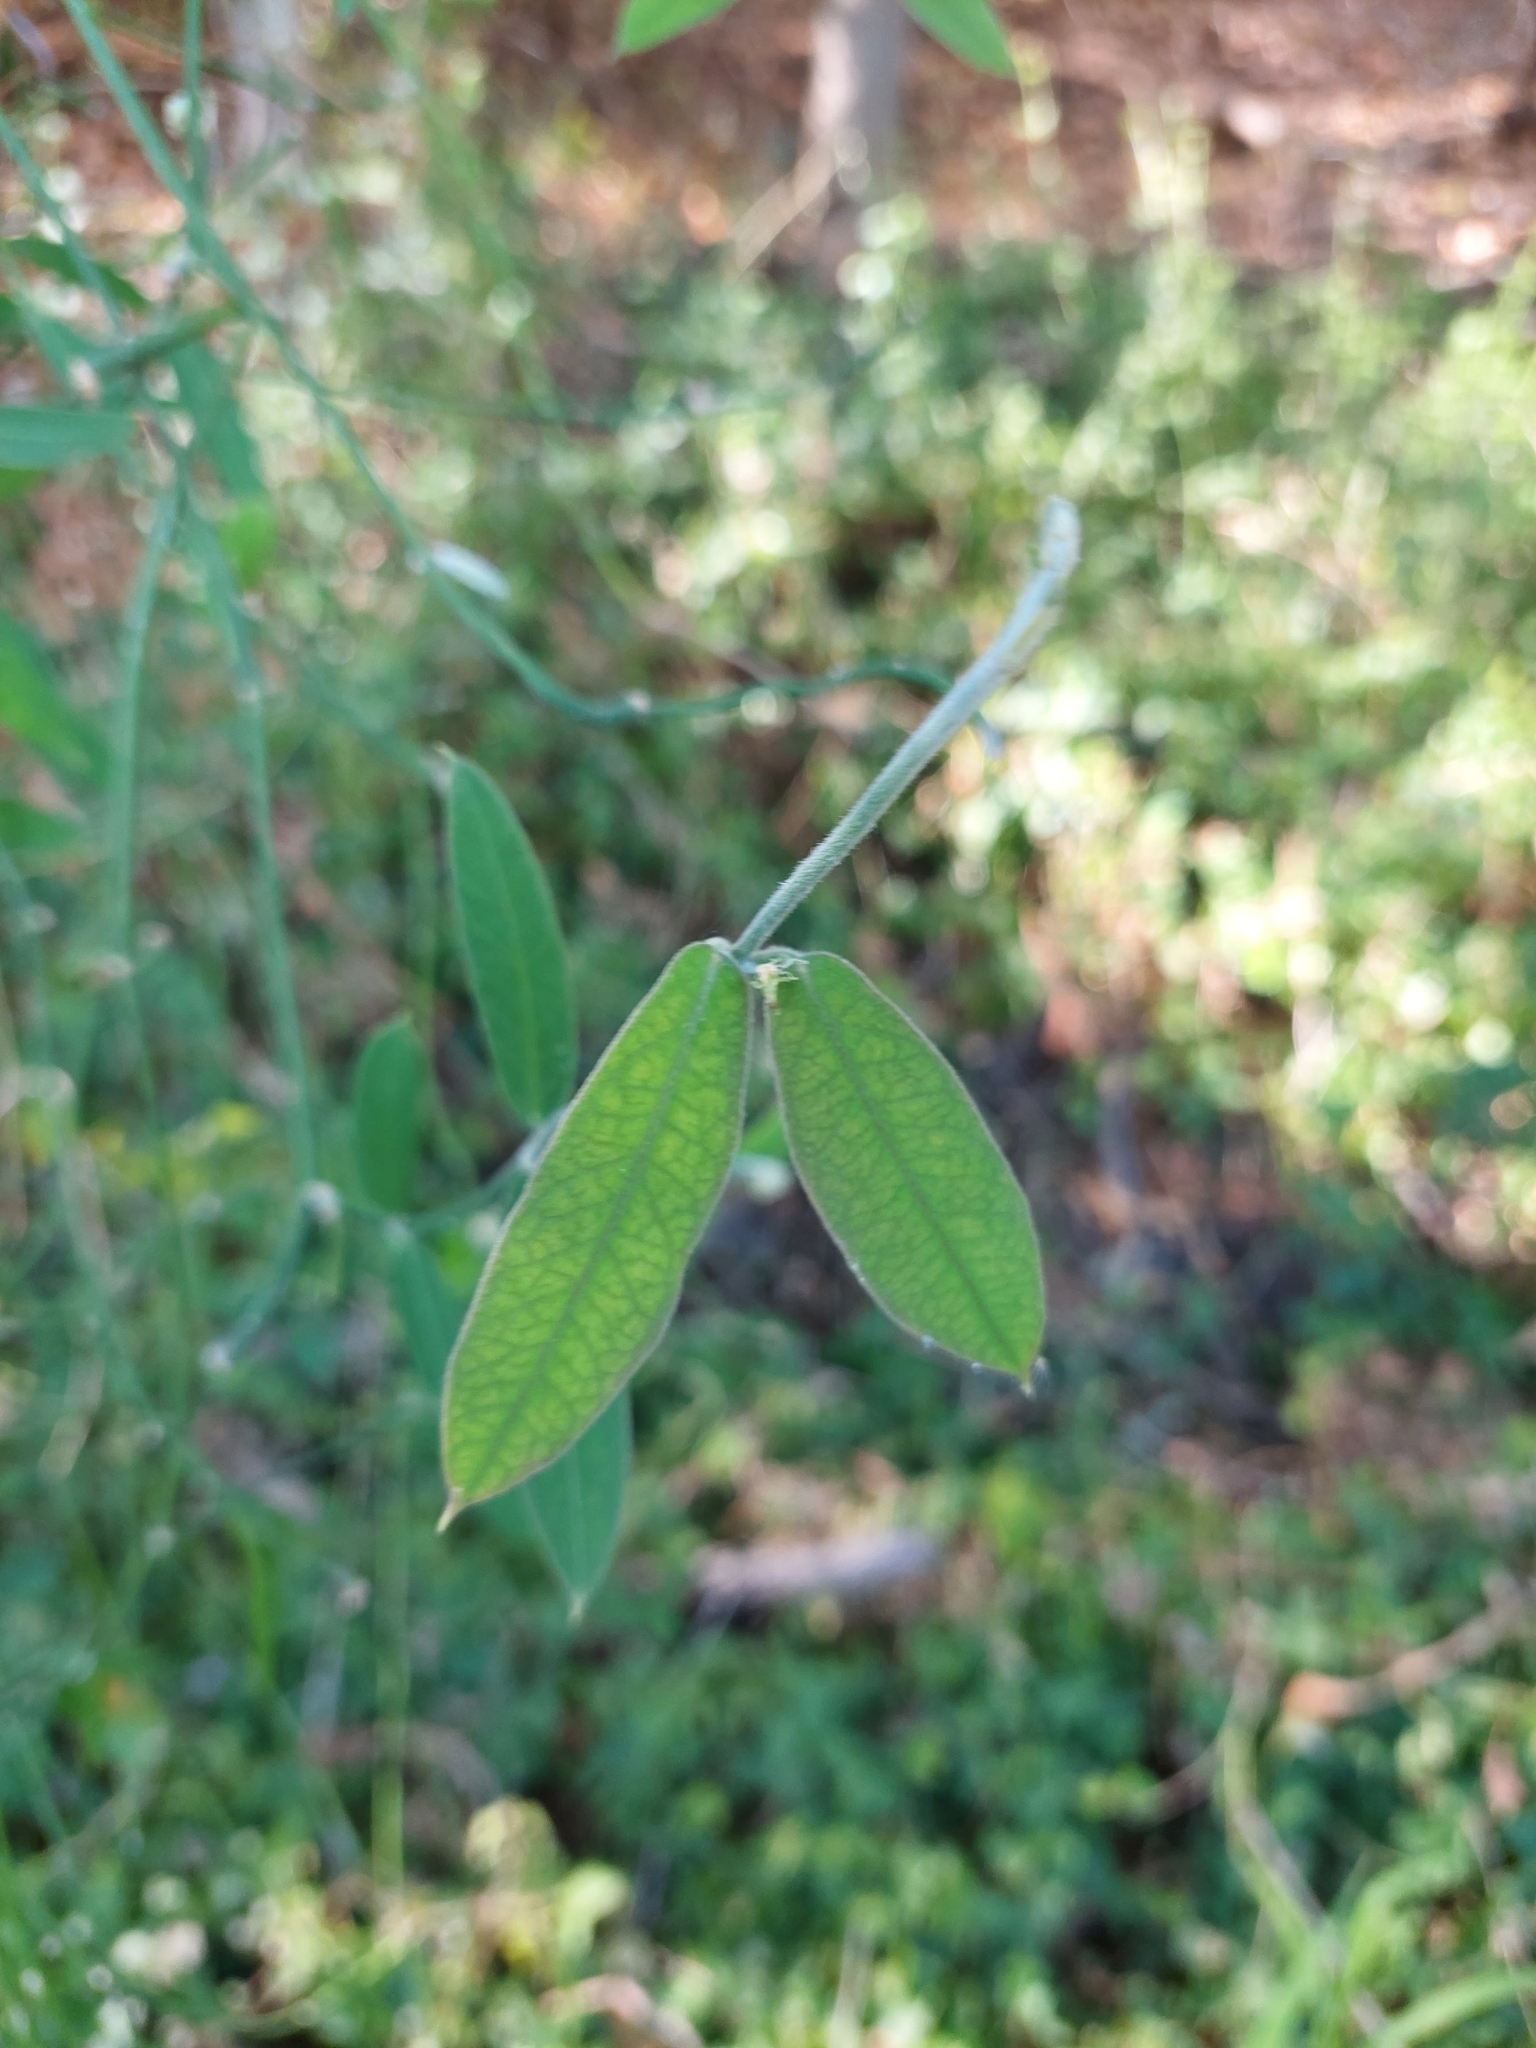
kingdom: Plantae
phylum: Tracheophyta
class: Magnoliopsida
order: Gentianales
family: Apocynaceae
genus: Funastrum
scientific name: Funastrum clausum
